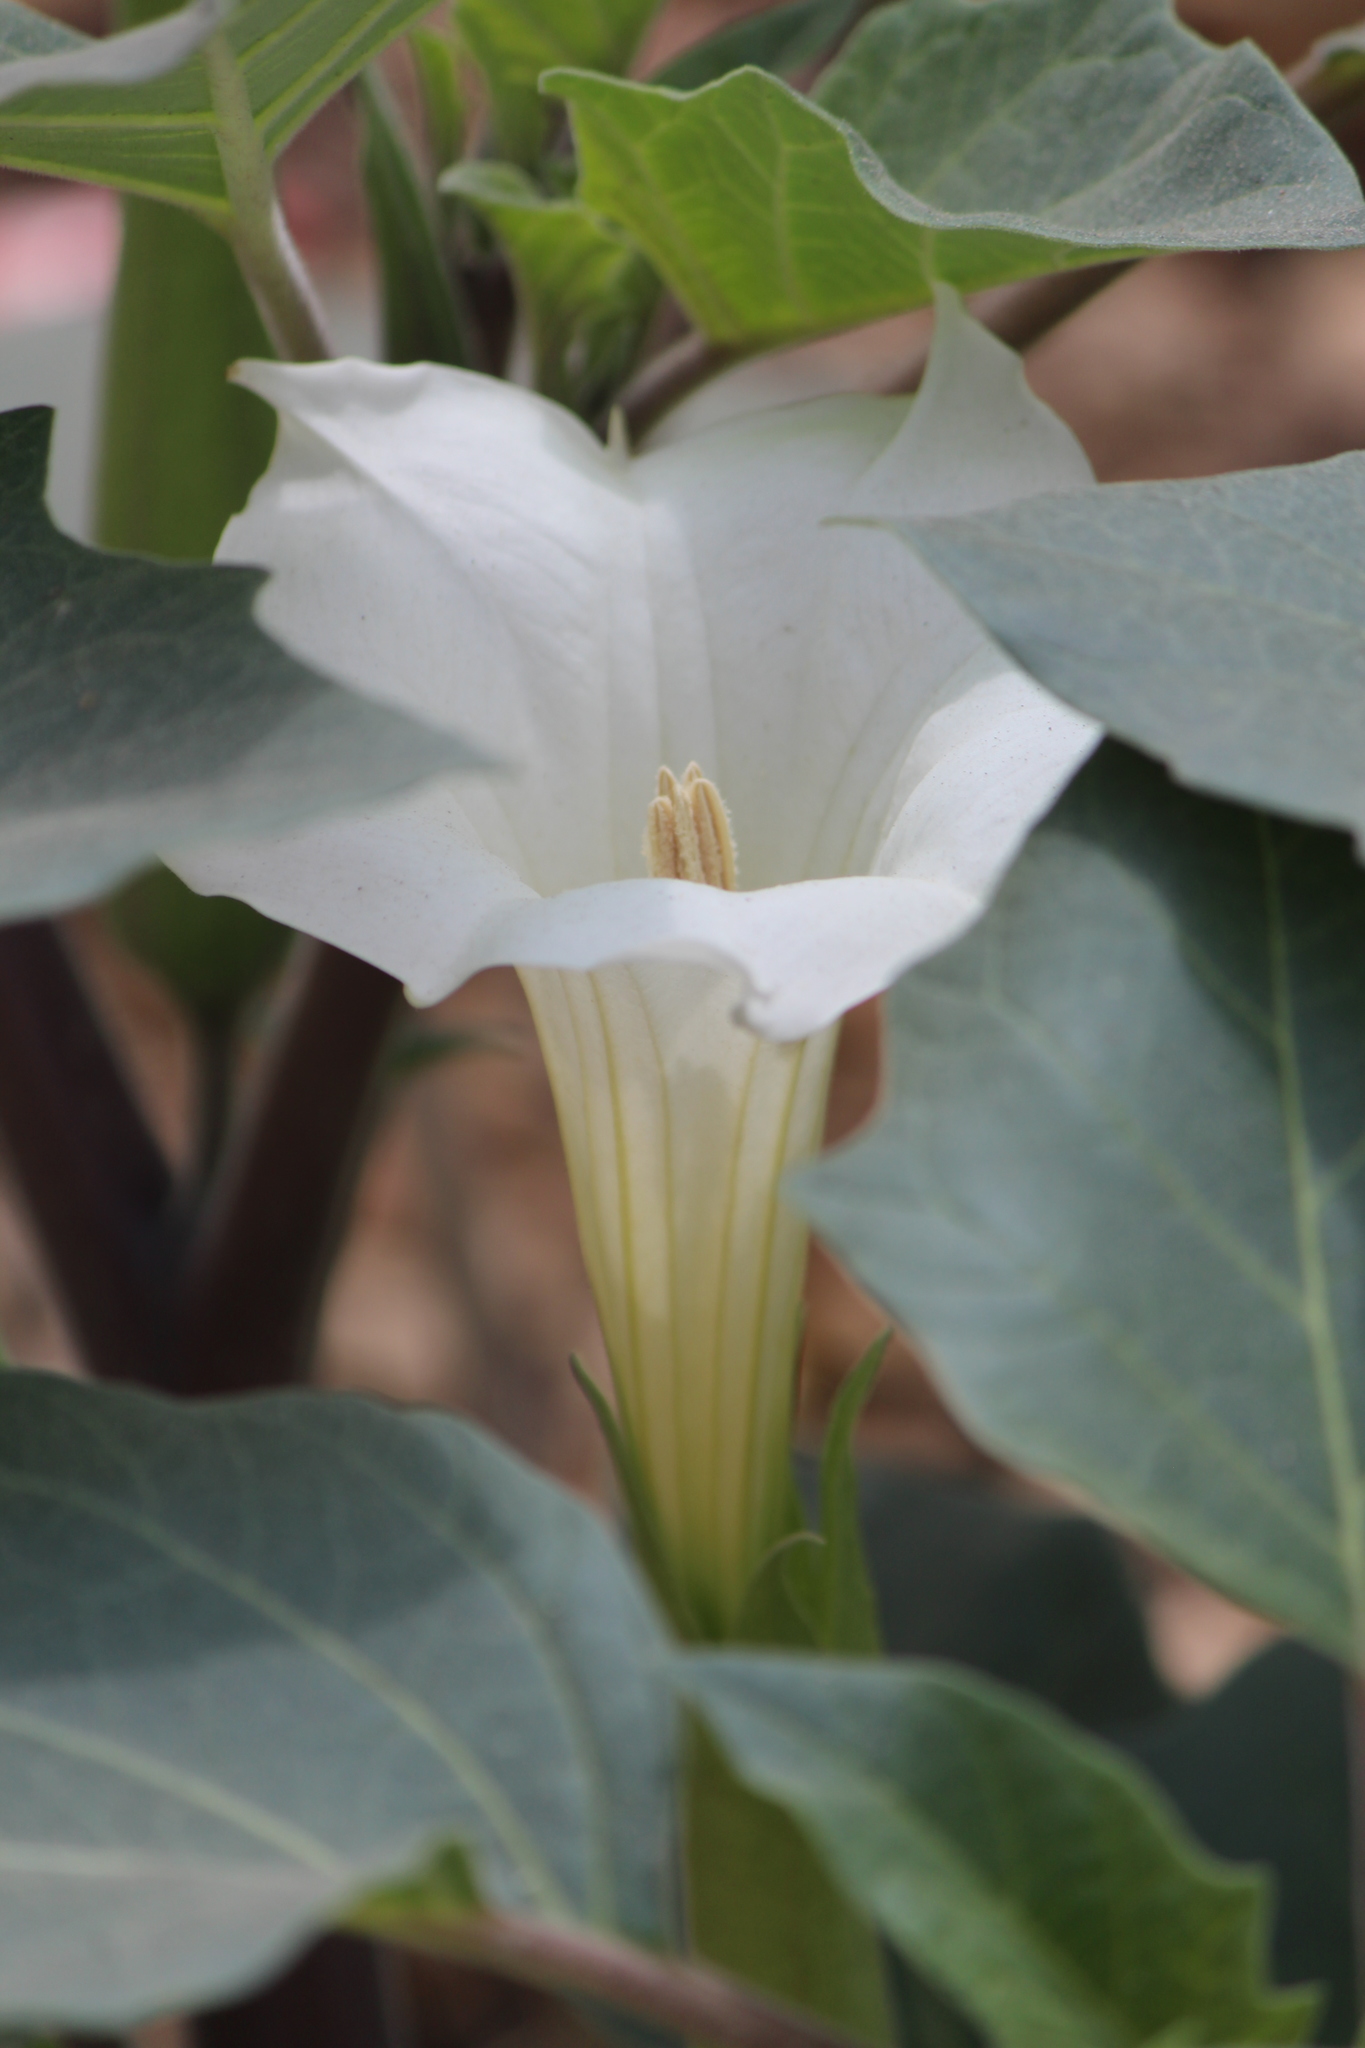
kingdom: Plantae
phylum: Tracheophyta
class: Magnoliopsida
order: Solanales
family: Solanaceae
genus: Datura
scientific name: Datura innoxia
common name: Downy thorn-apple
